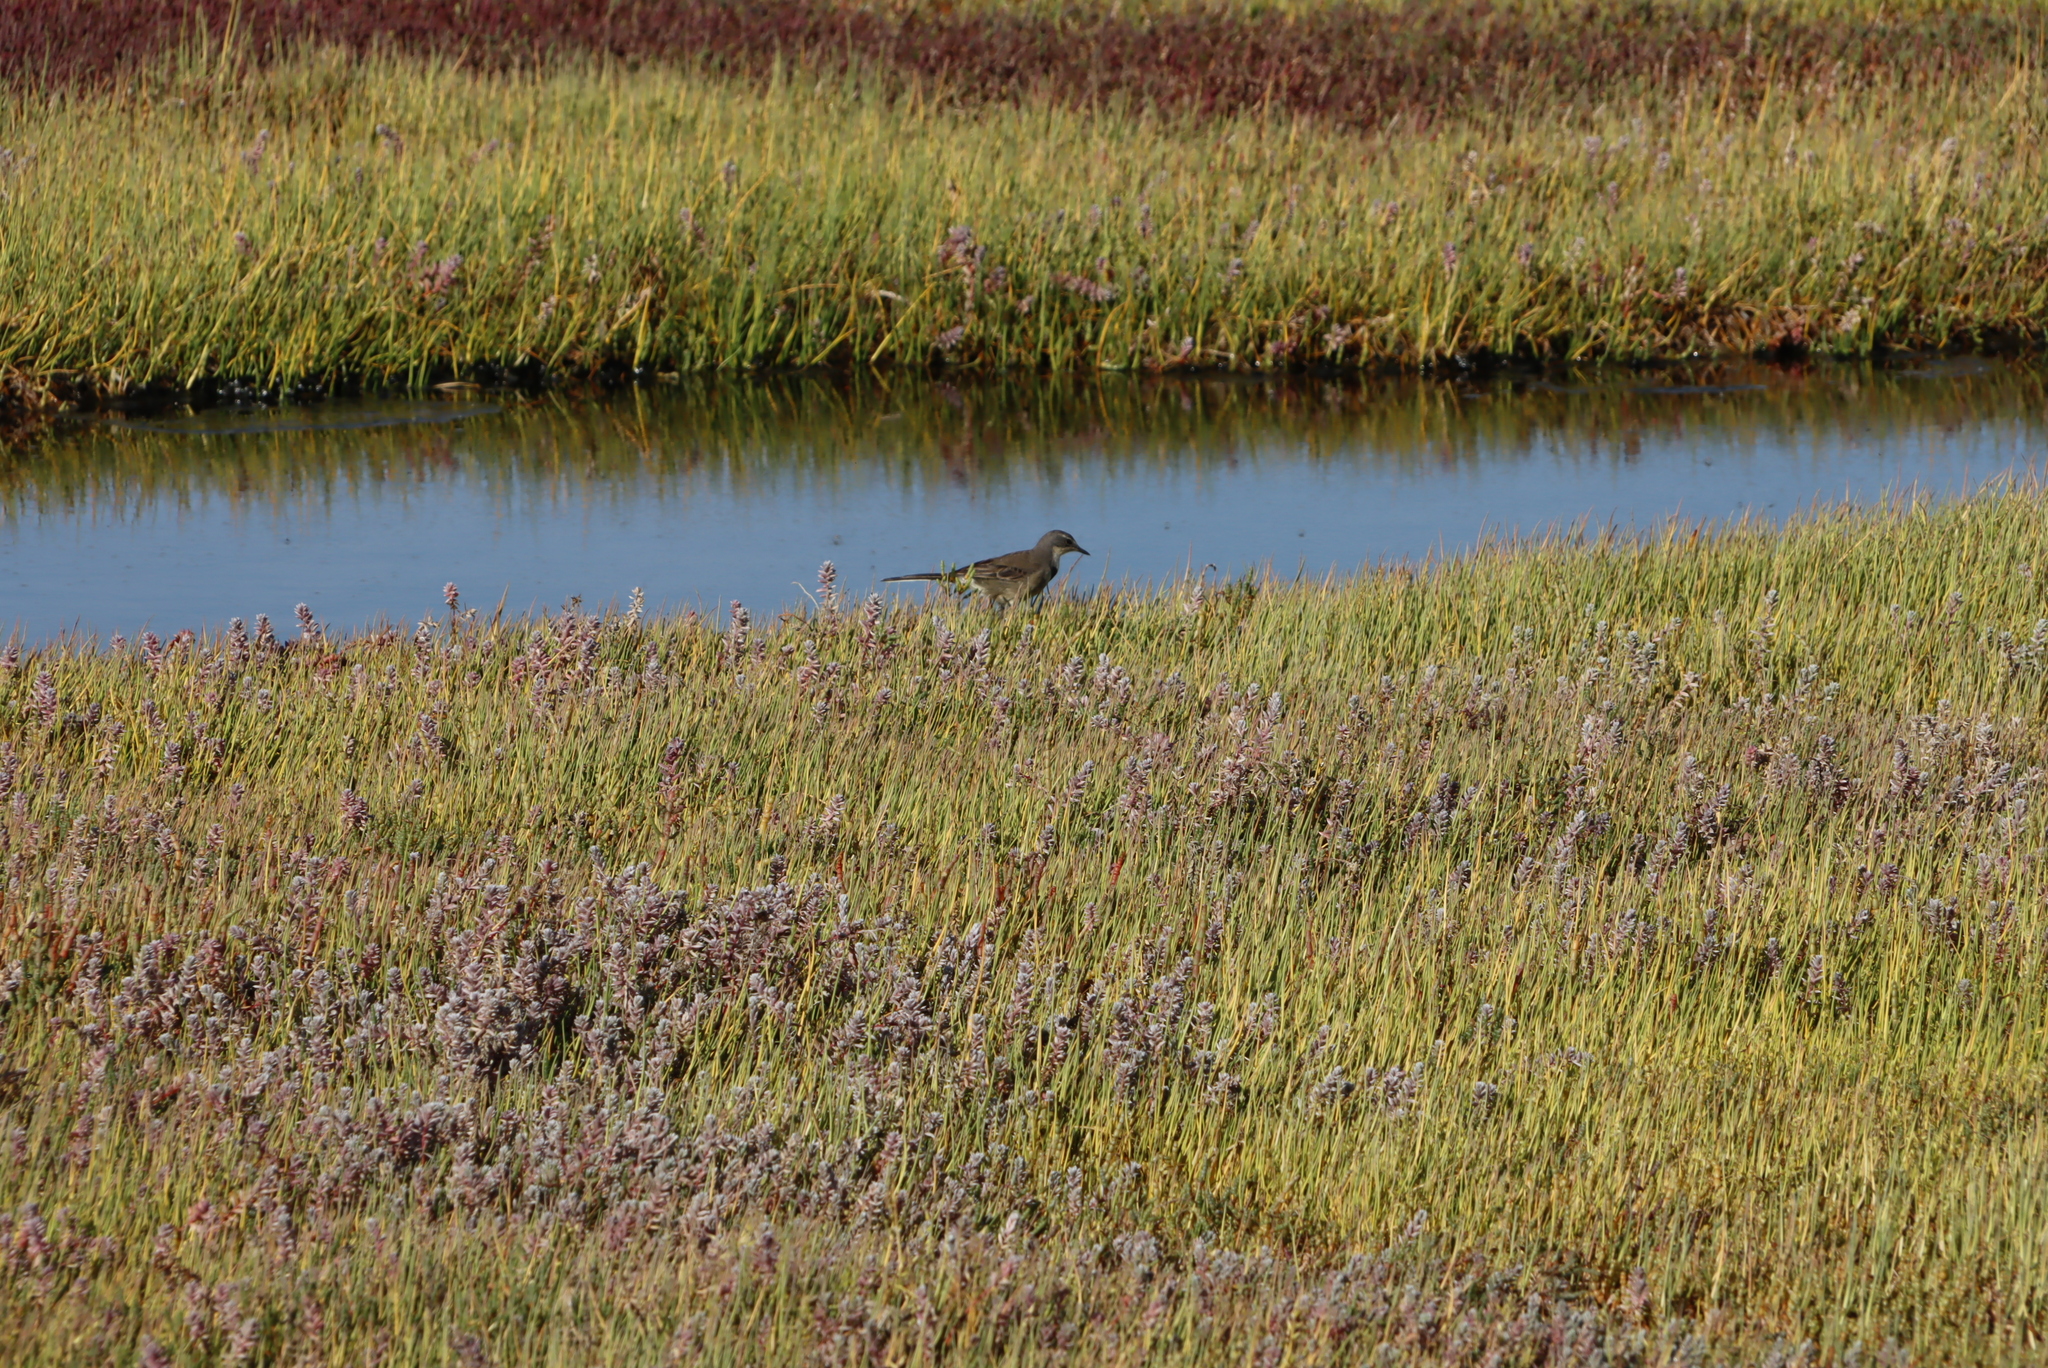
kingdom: Animalia
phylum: Chordata
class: Aves
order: Passeriformes
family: Motacillidae
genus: Motacilla
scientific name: Motacilla capensis
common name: Cape wagtail
